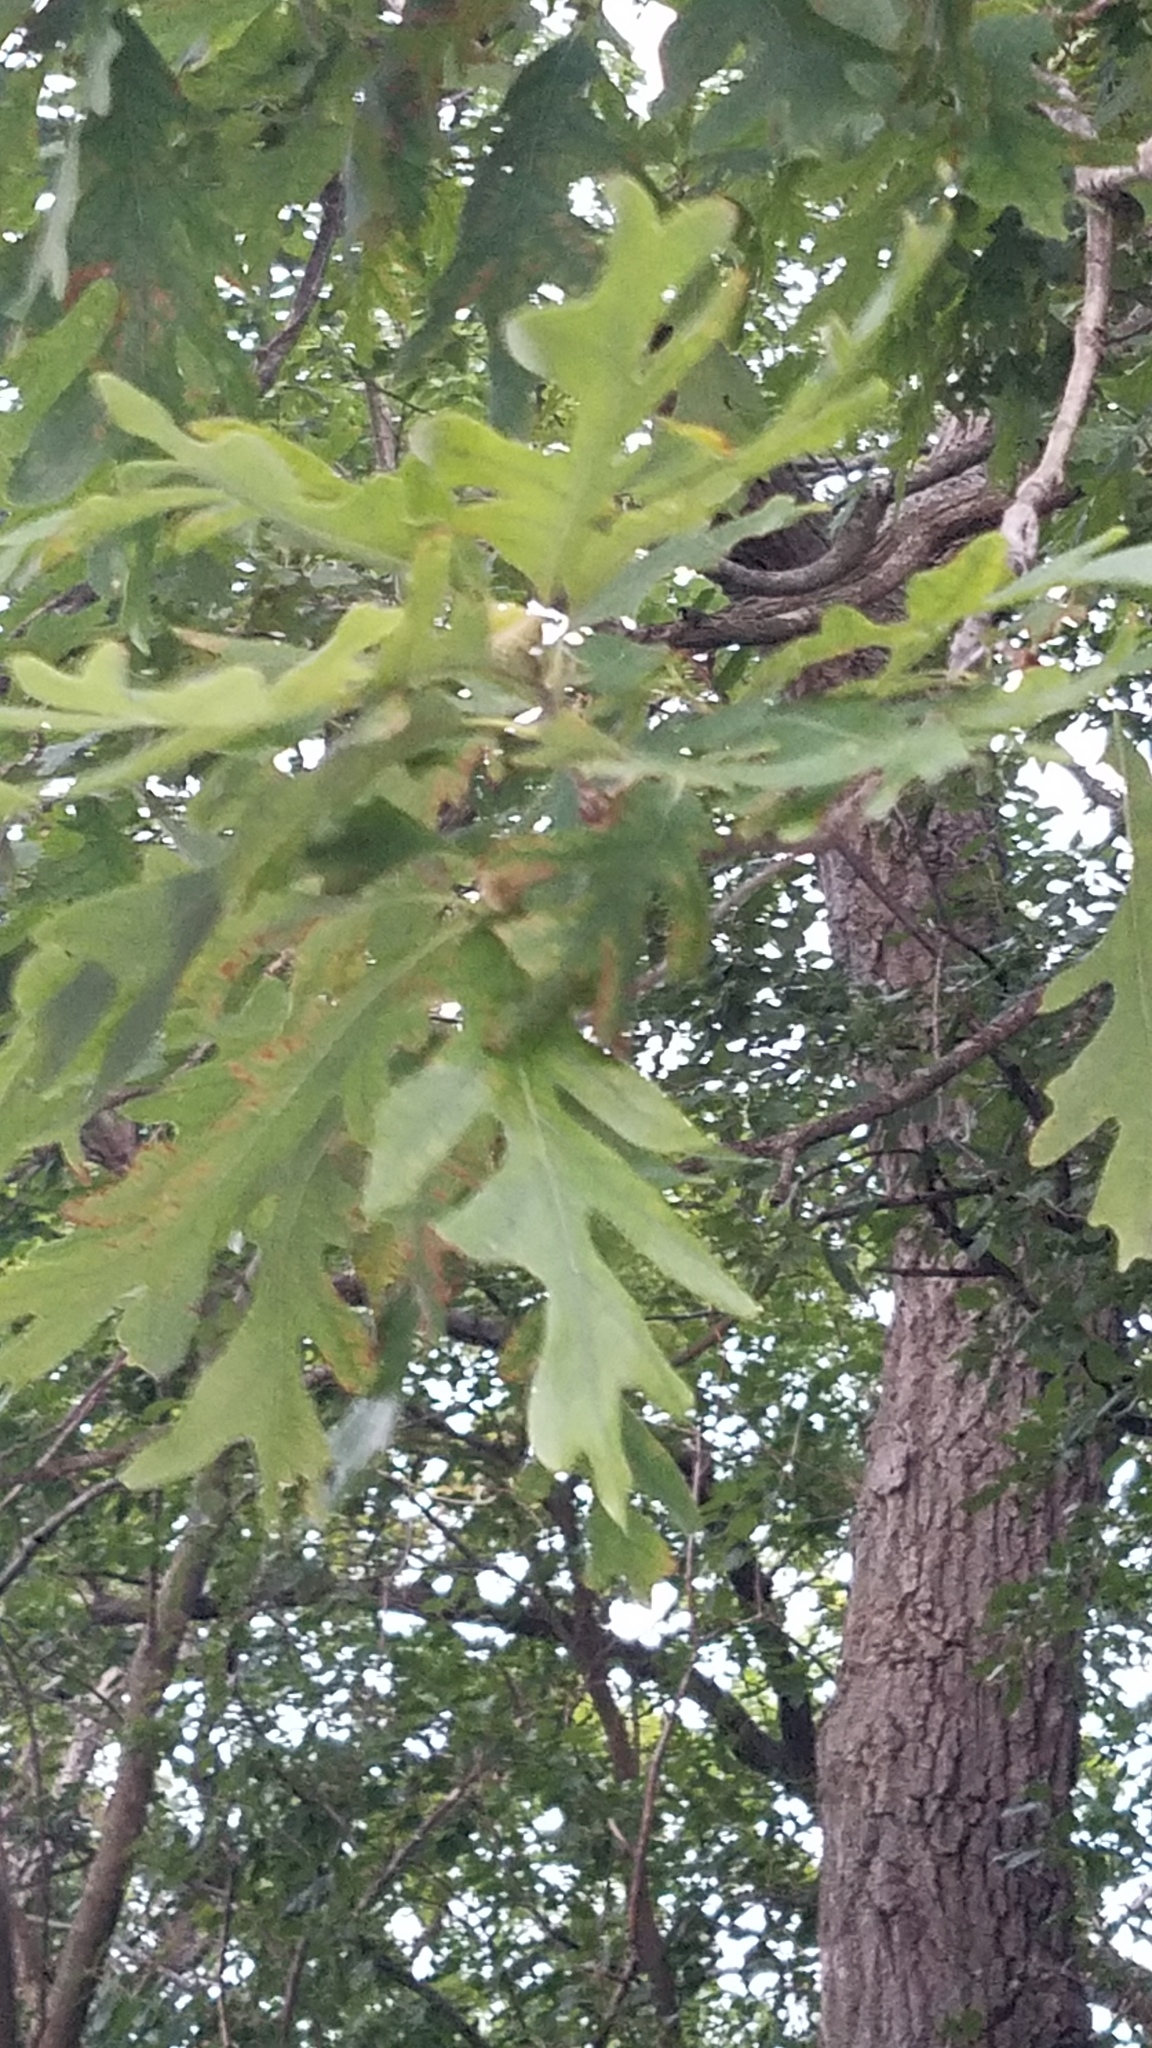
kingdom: Plantae
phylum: Tracheophyta
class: Magnoliopsida
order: Fagales
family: Fagaceae
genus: Quercus
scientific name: Quercus alba
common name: White oak
